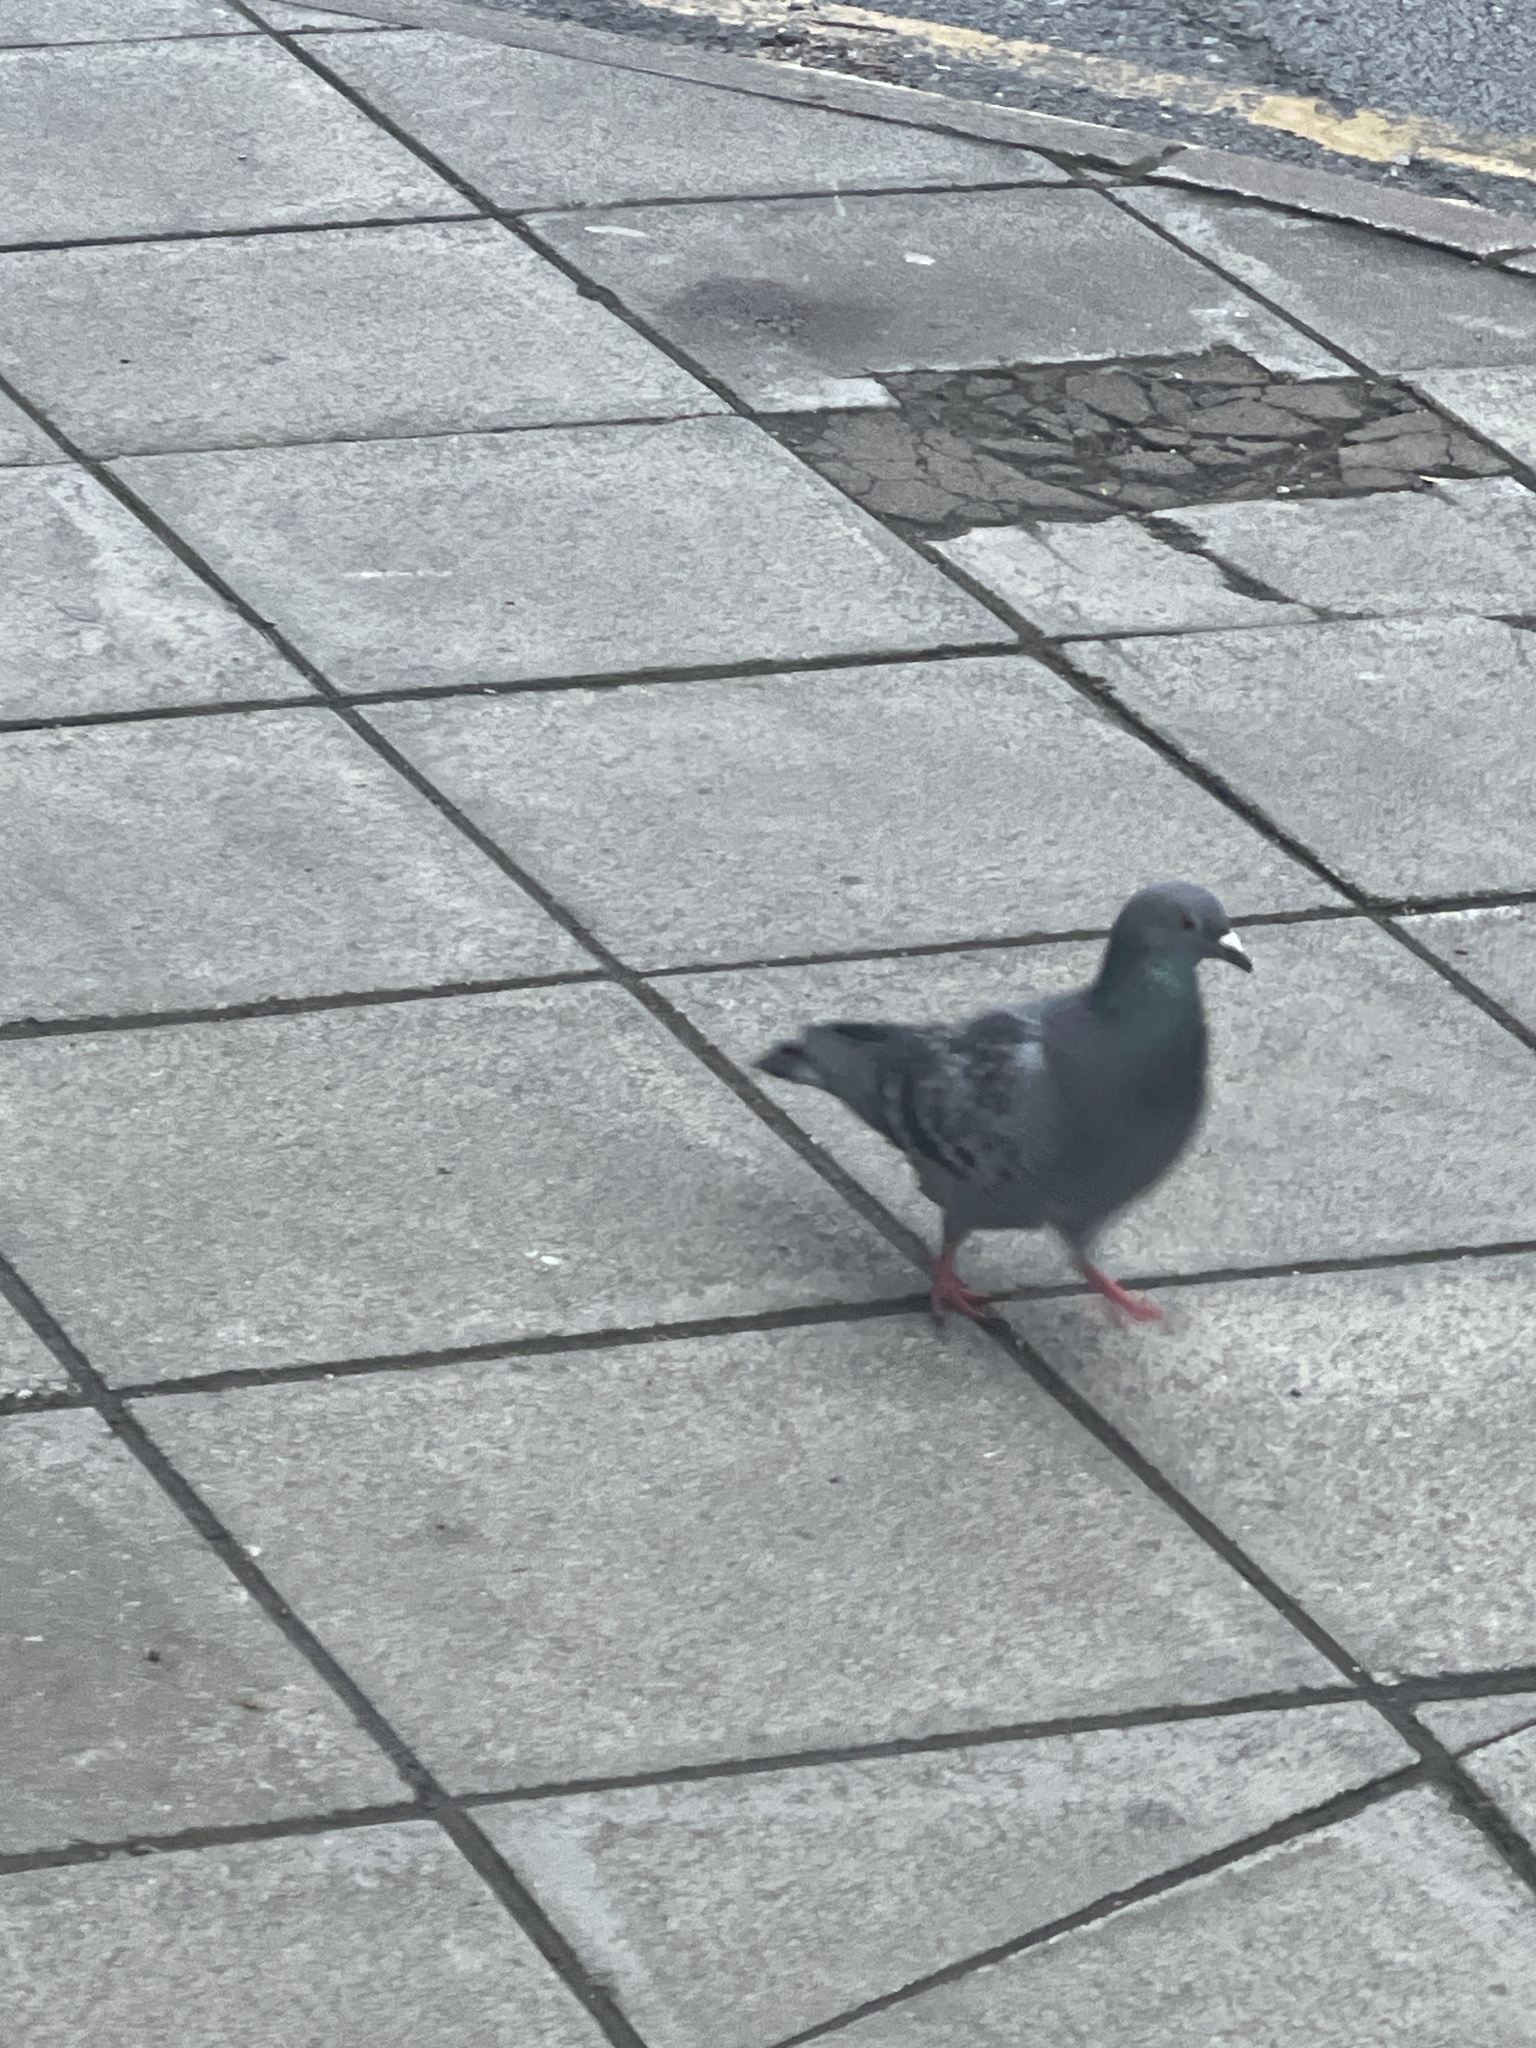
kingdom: Animalia
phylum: Chordata
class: Aves
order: Columbiformes
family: Columbidae
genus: Columba
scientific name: Columba livia
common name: Rock pigeon
